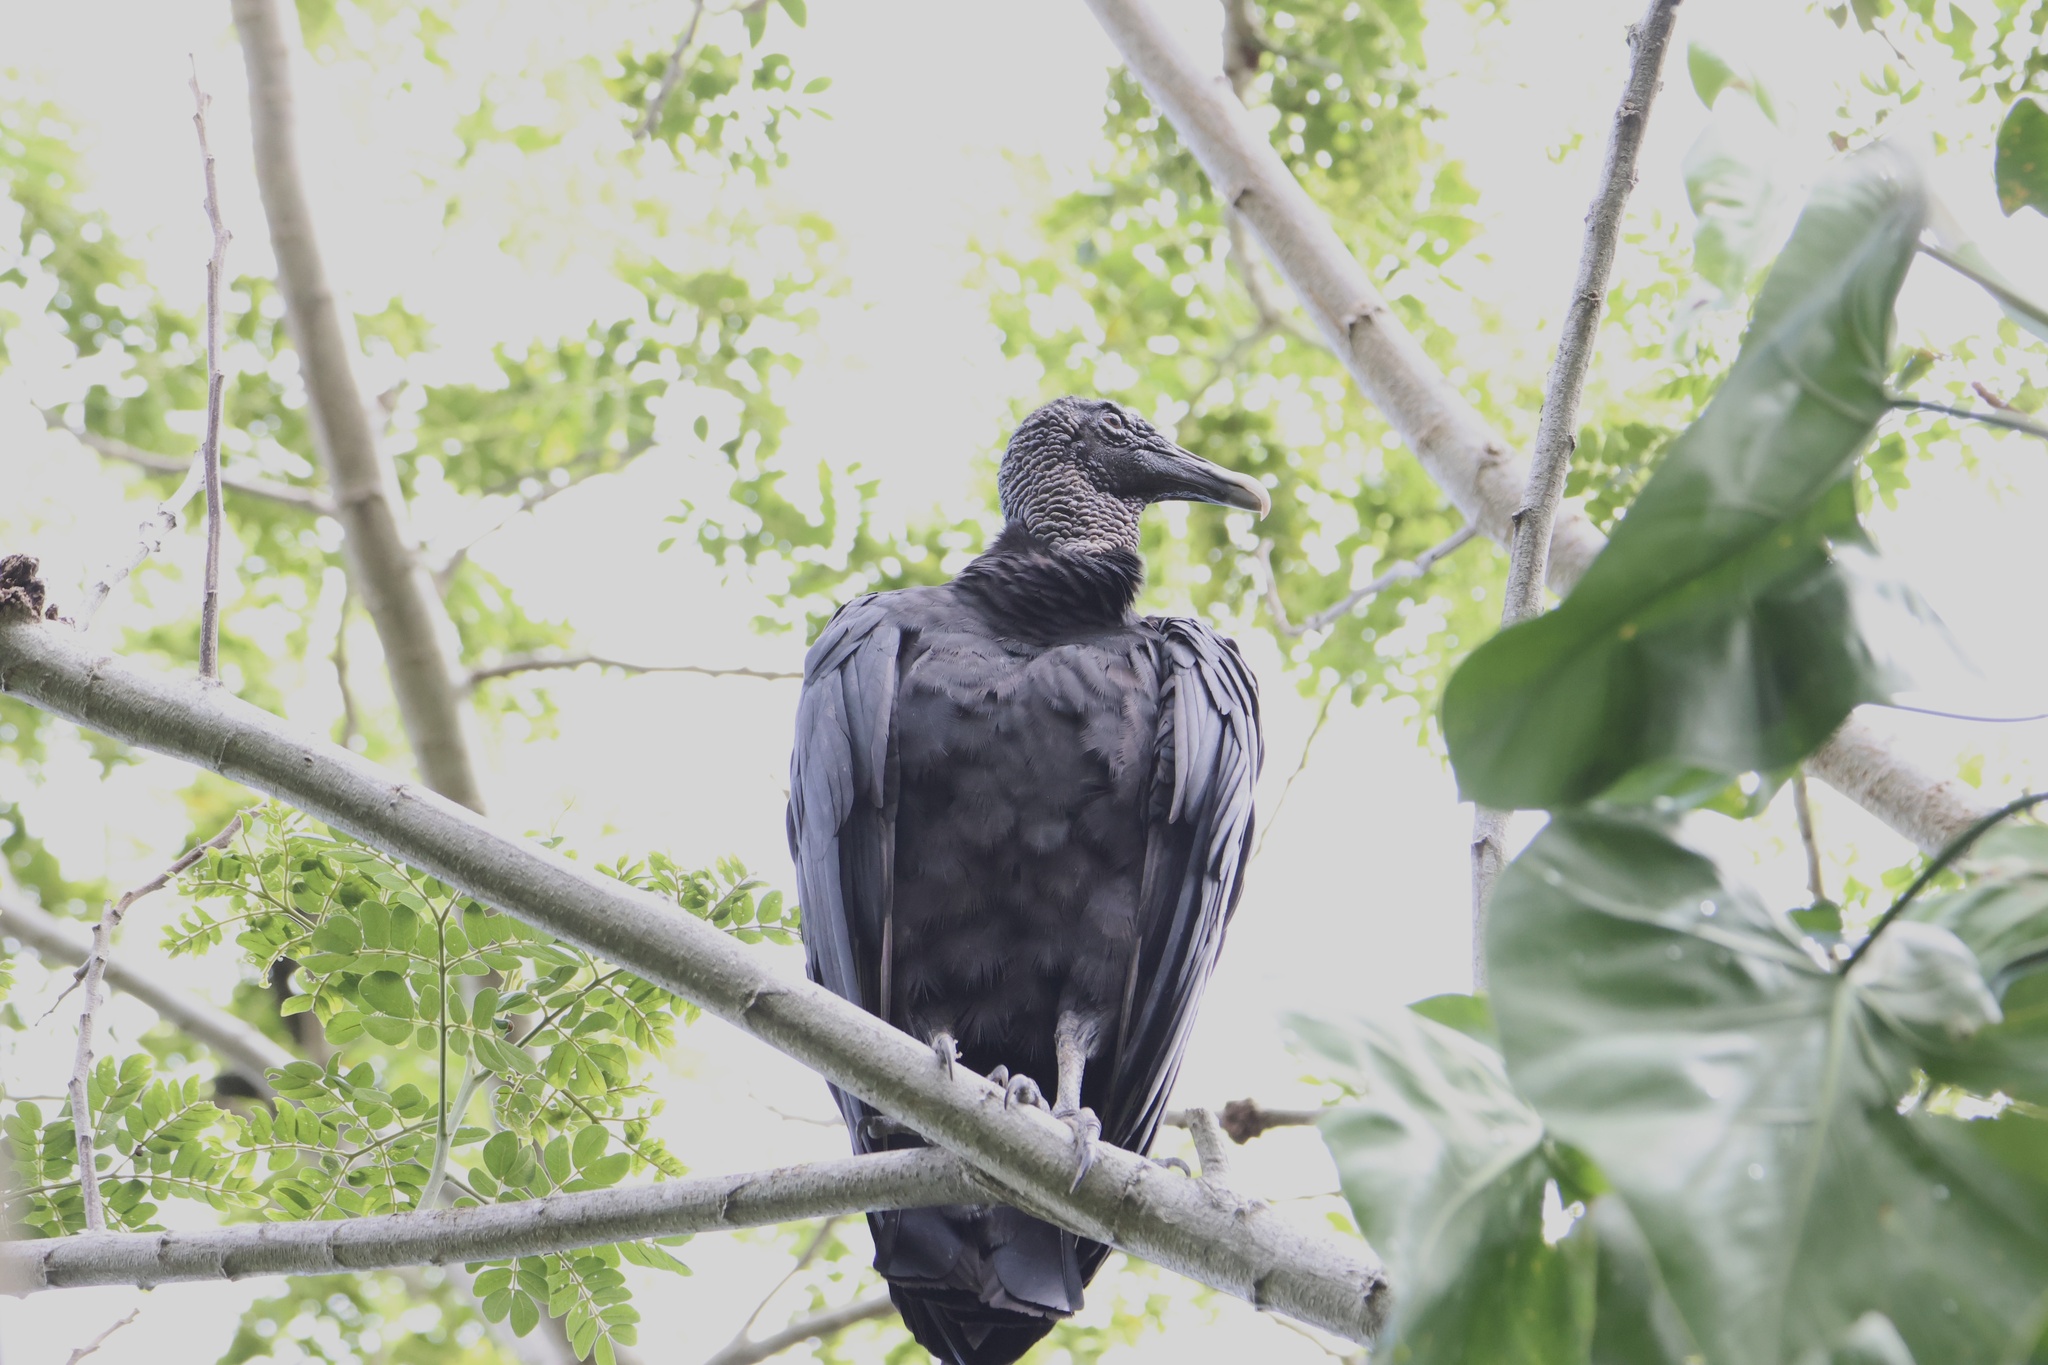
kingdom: Animalia
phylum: Chordata
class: Aves
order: Accipitriformes
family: Cathartidae
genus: Coragyps
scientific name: Coragyps atratus
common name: Black vulture
